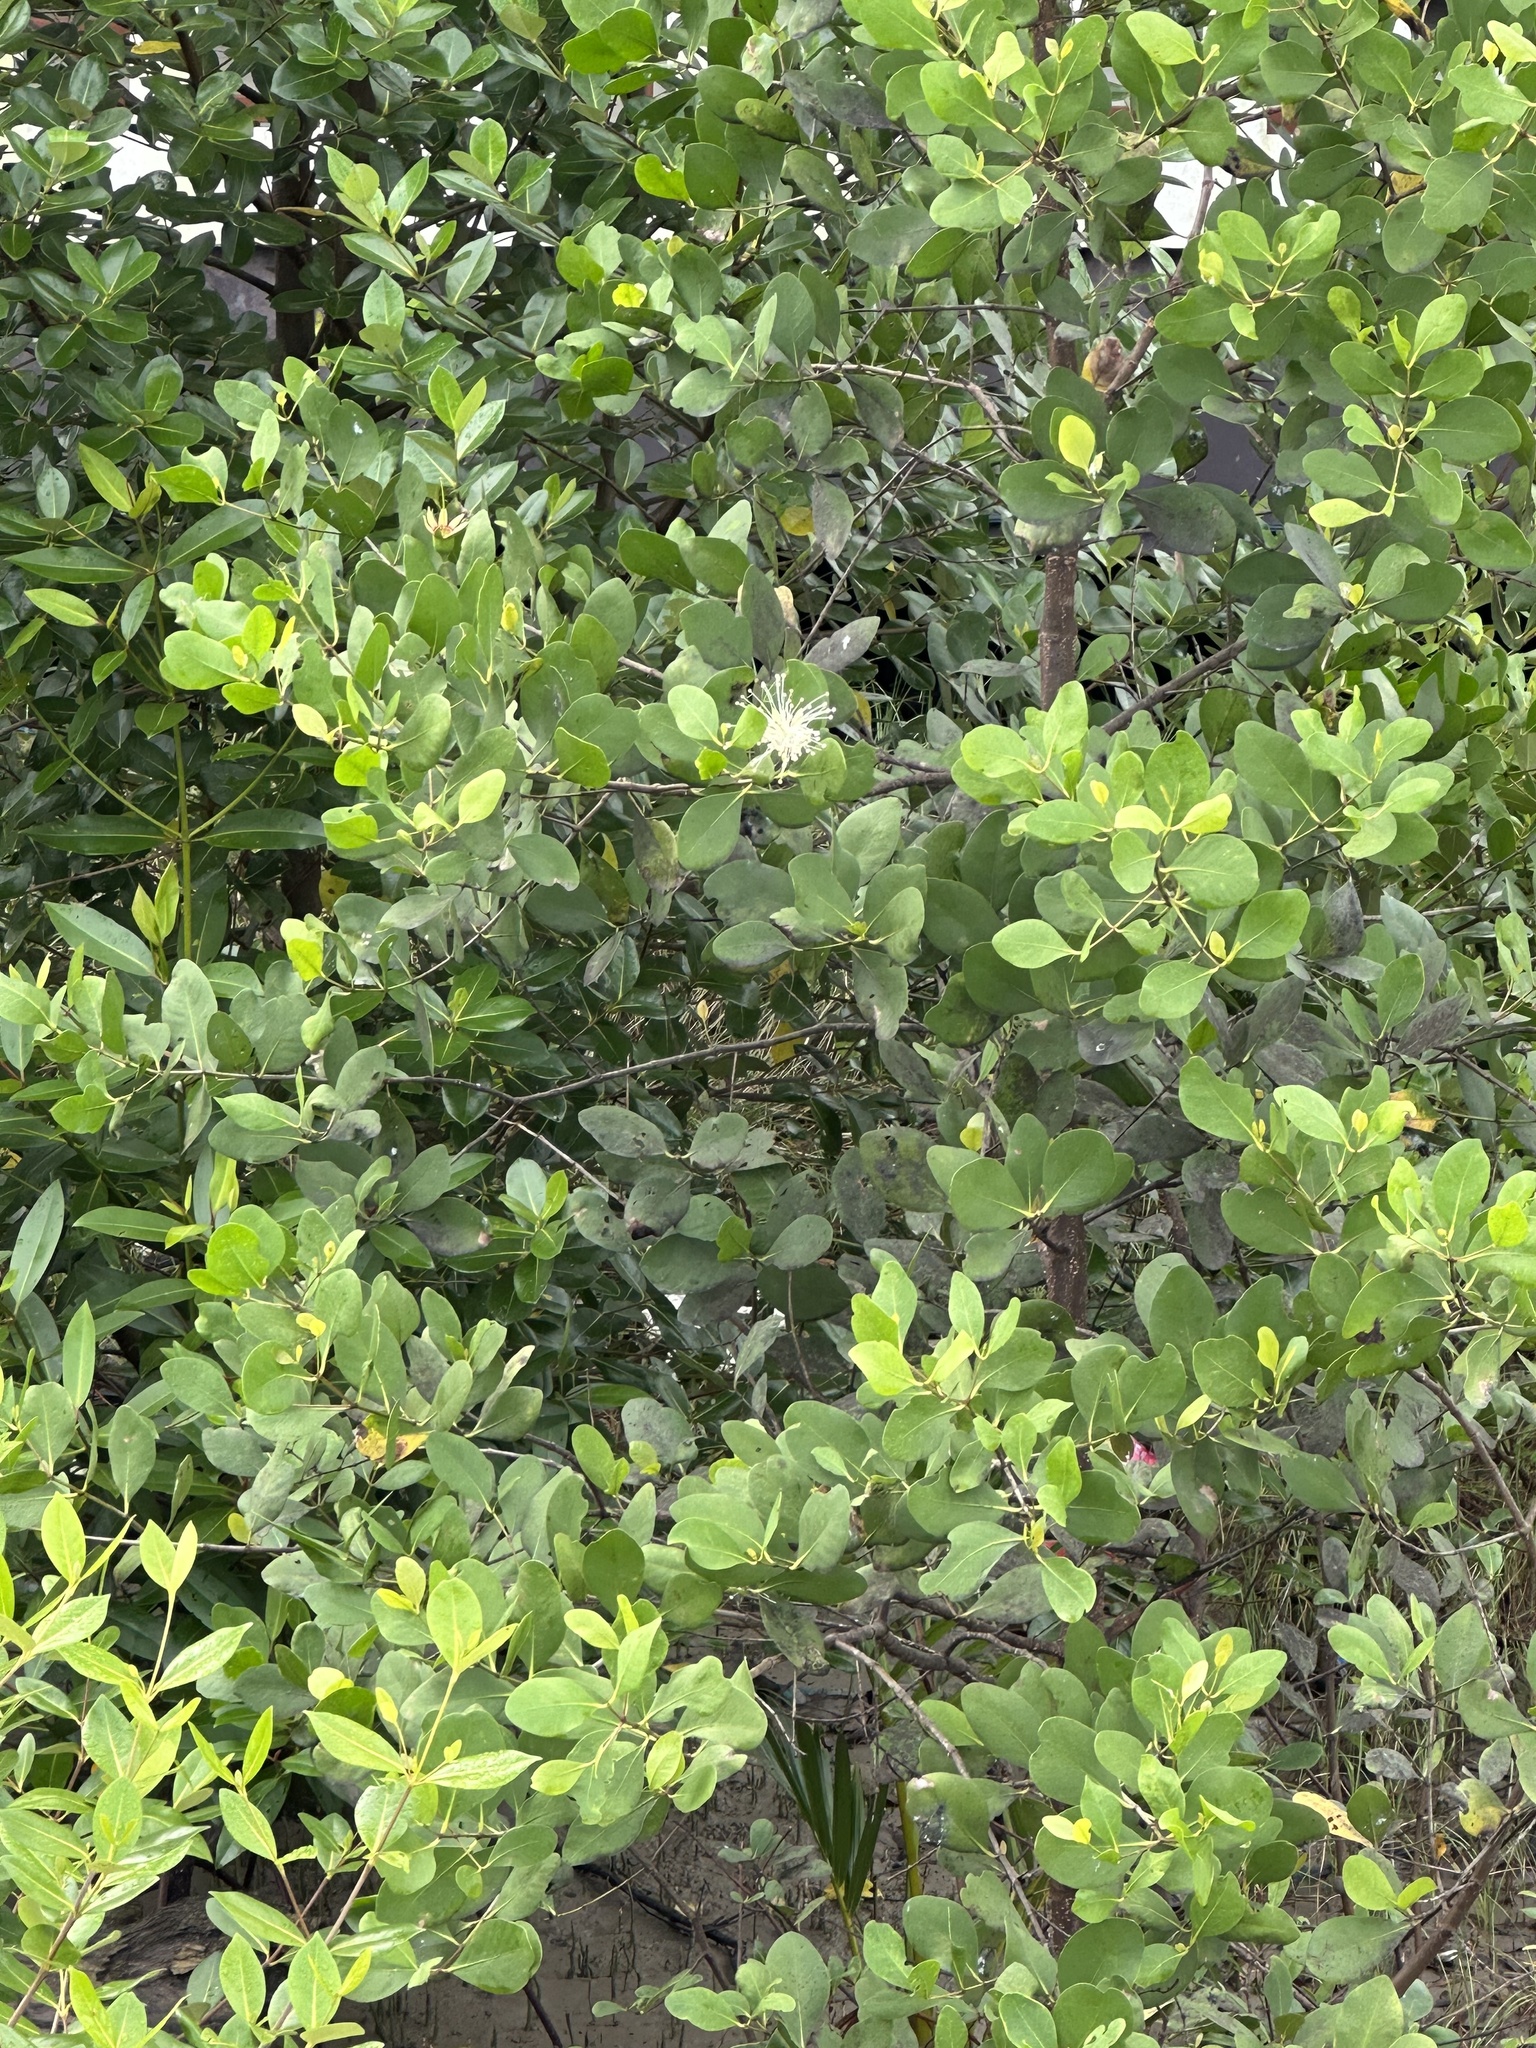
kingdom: Plantae
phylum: Tracheophyta
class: Magnoliopsida
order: Myrtales
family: Lythraceae
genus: Sonneratia
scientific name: Sonneratia alba
